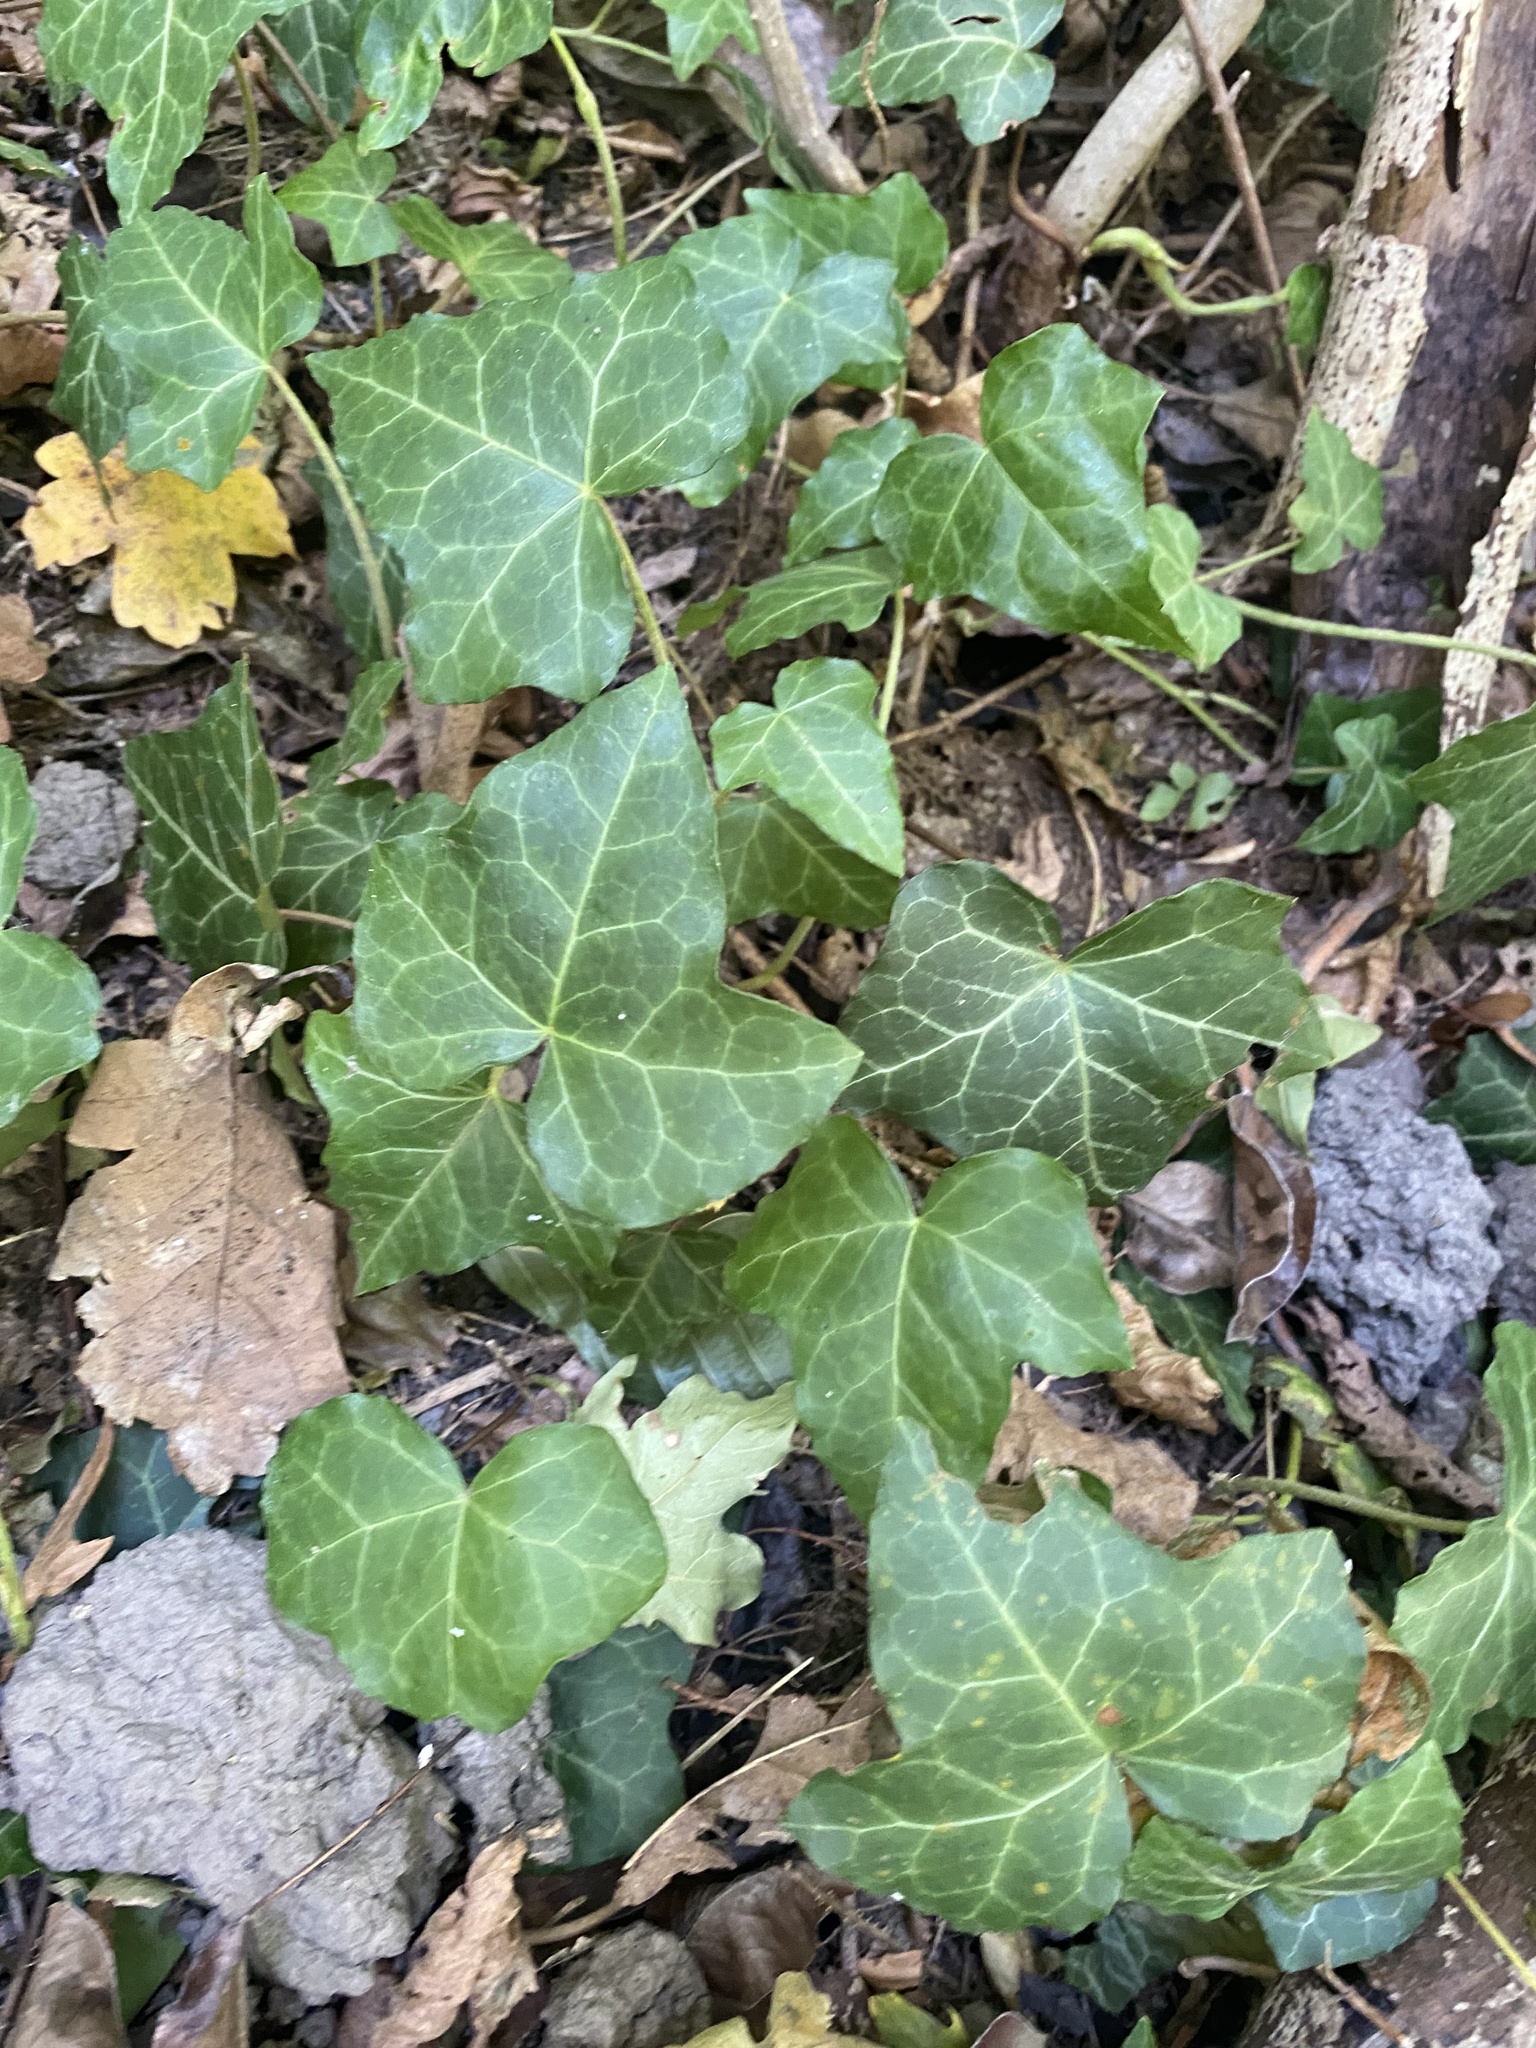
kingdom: Plantae
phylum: Tracheophyta
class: Magnoliopsida
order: Apiales
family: Araliaceae
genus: Hedera
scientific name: Hedera helix
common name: Ivy
